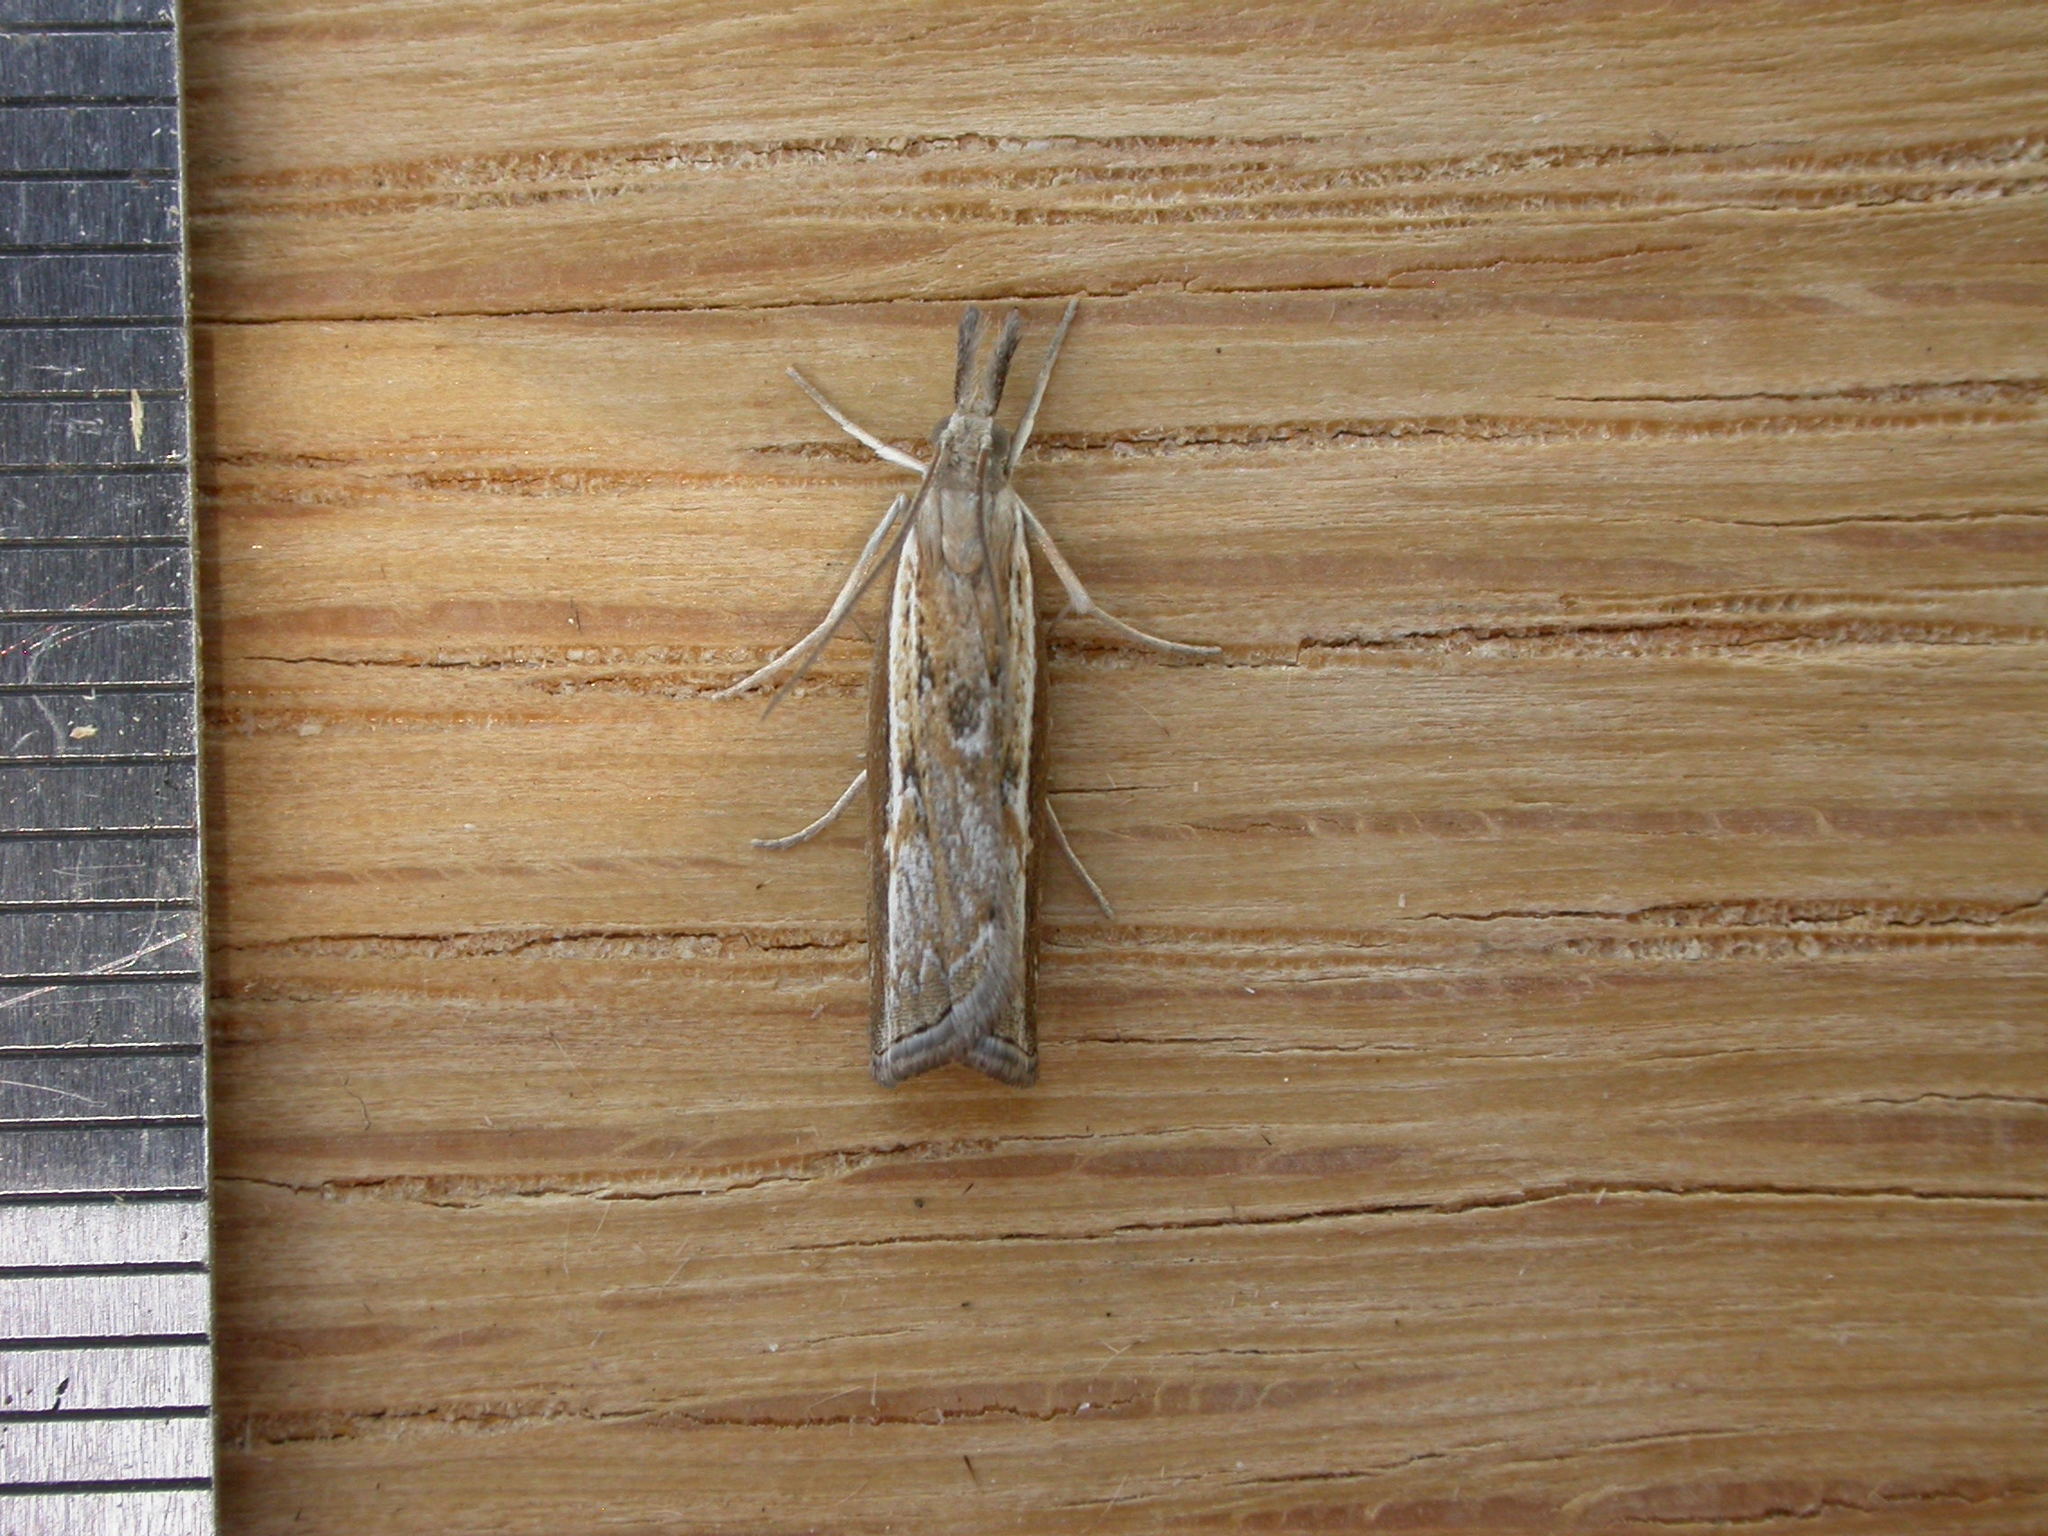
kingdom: Animalia
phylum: Arthropoda
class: Insecta
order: Lepidoptera
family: Crambidae
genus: Ptochostola
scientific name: Ptochostola microphaeellus
